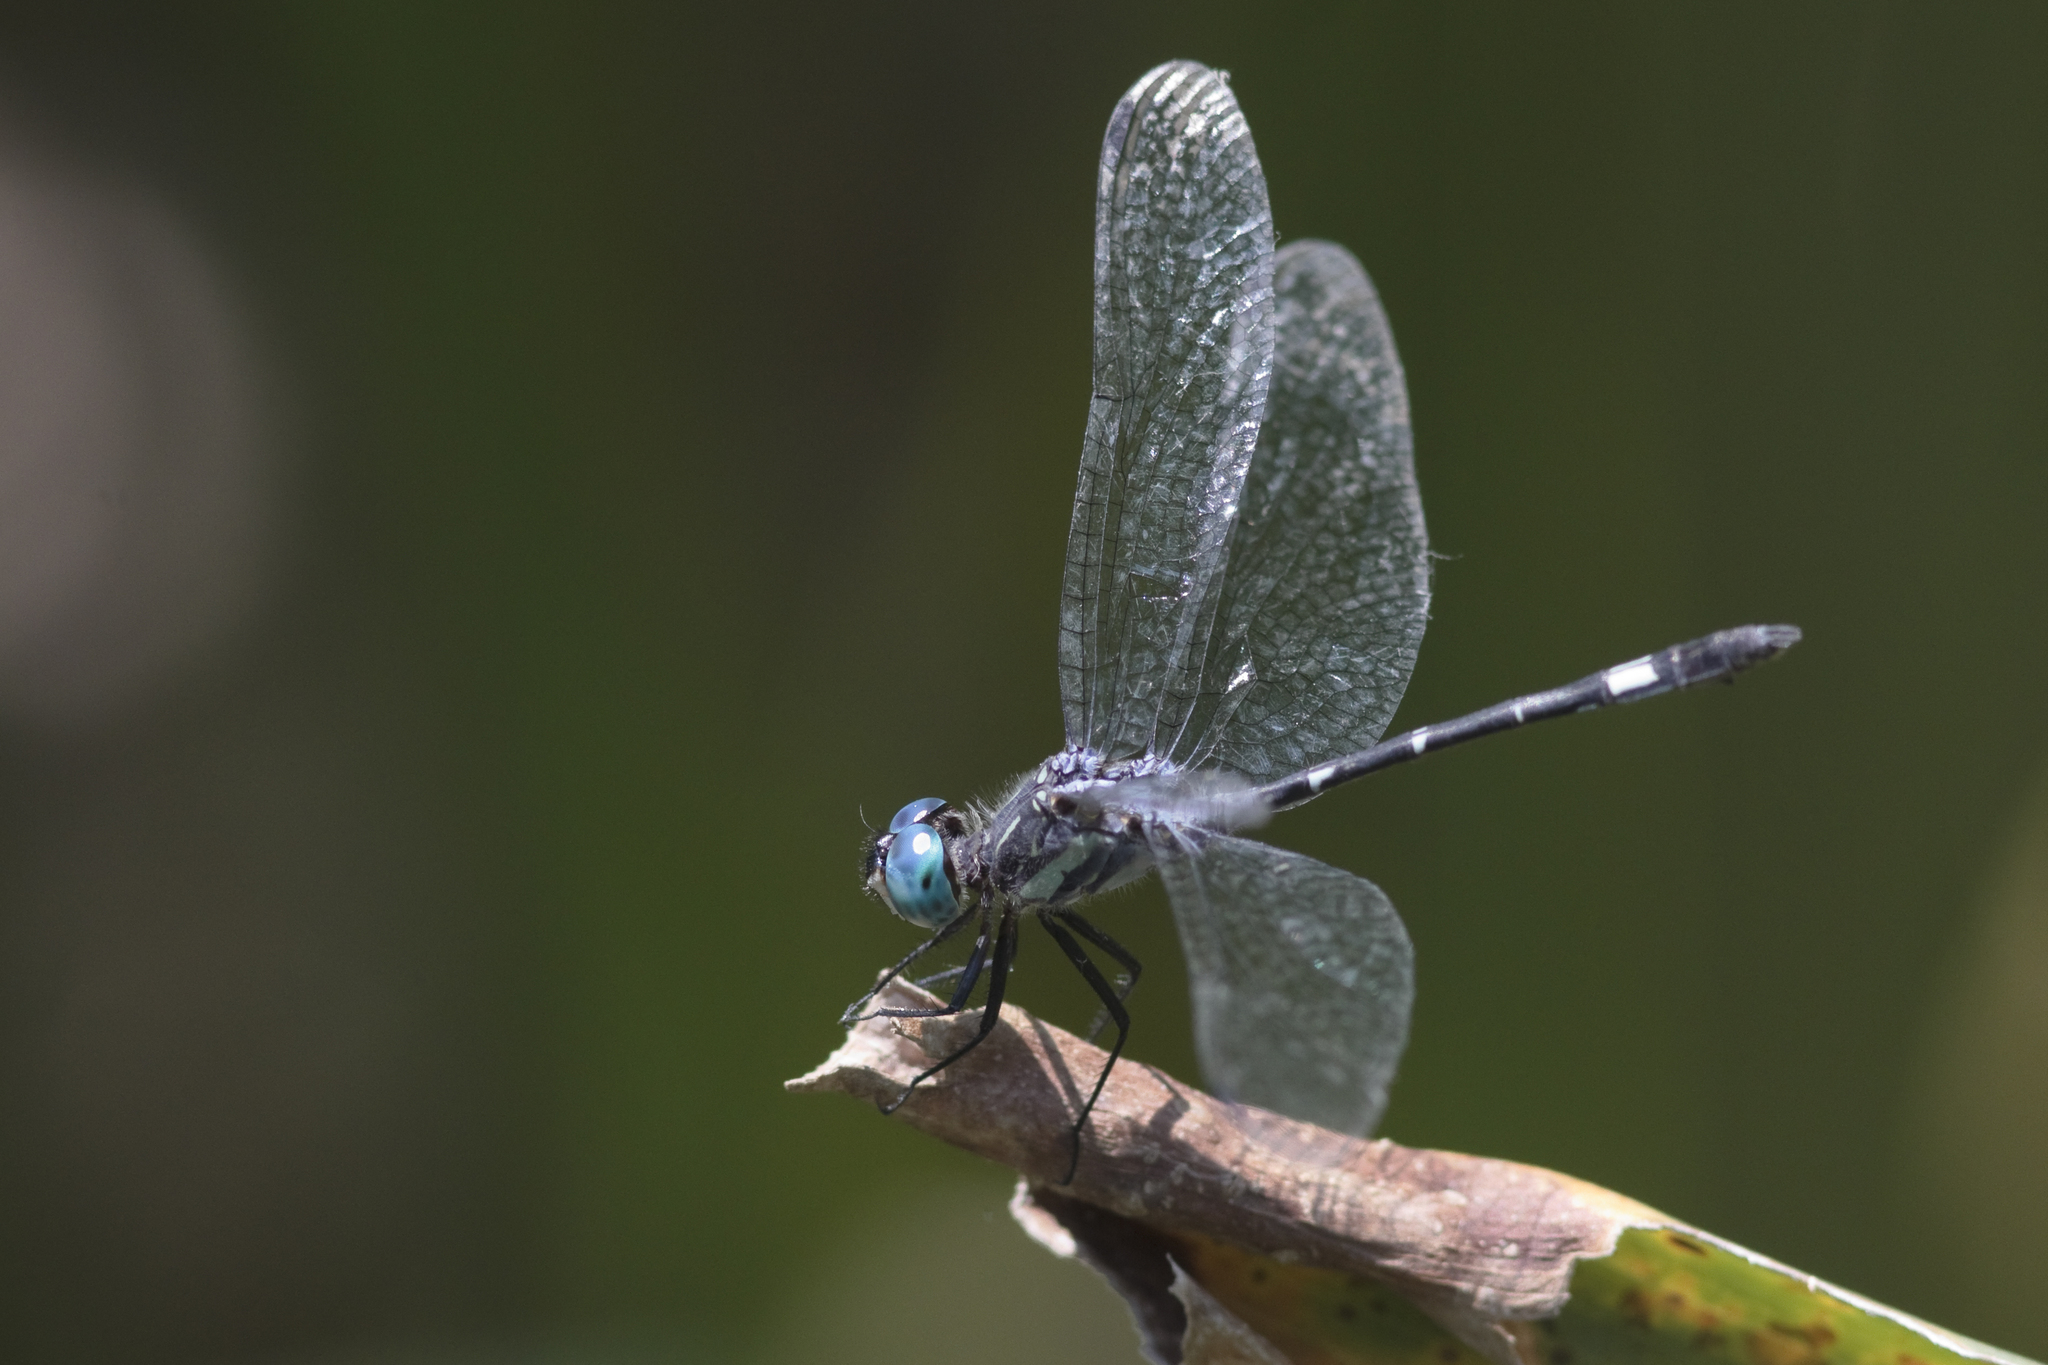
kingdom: Animalia
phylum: Arthropoda
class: Insecta
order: Odonata
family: Libellulidae
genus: Micrathyria
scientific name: Micrathyria hypodidyma
